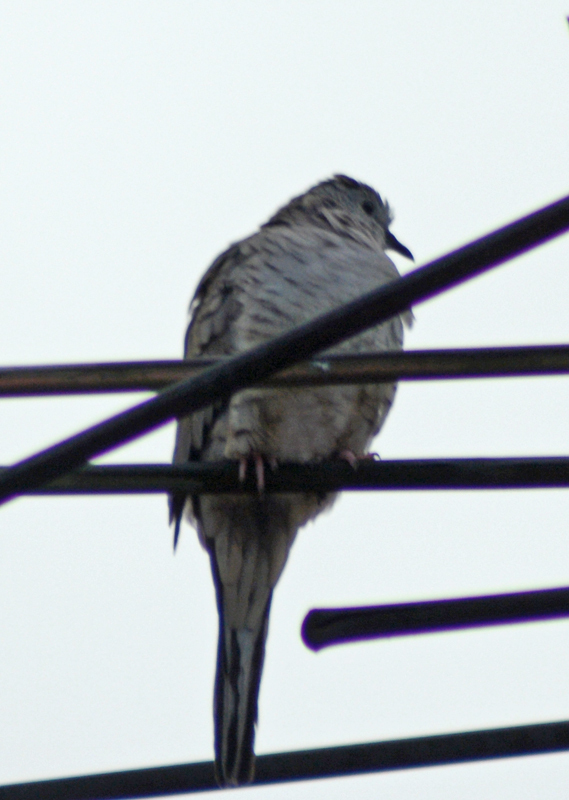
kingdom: Animalia
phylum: Chordata
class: Aves
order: Columbiformes
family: Columbidae
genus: Columbina
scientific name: Columbina inca
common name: Inca dove
